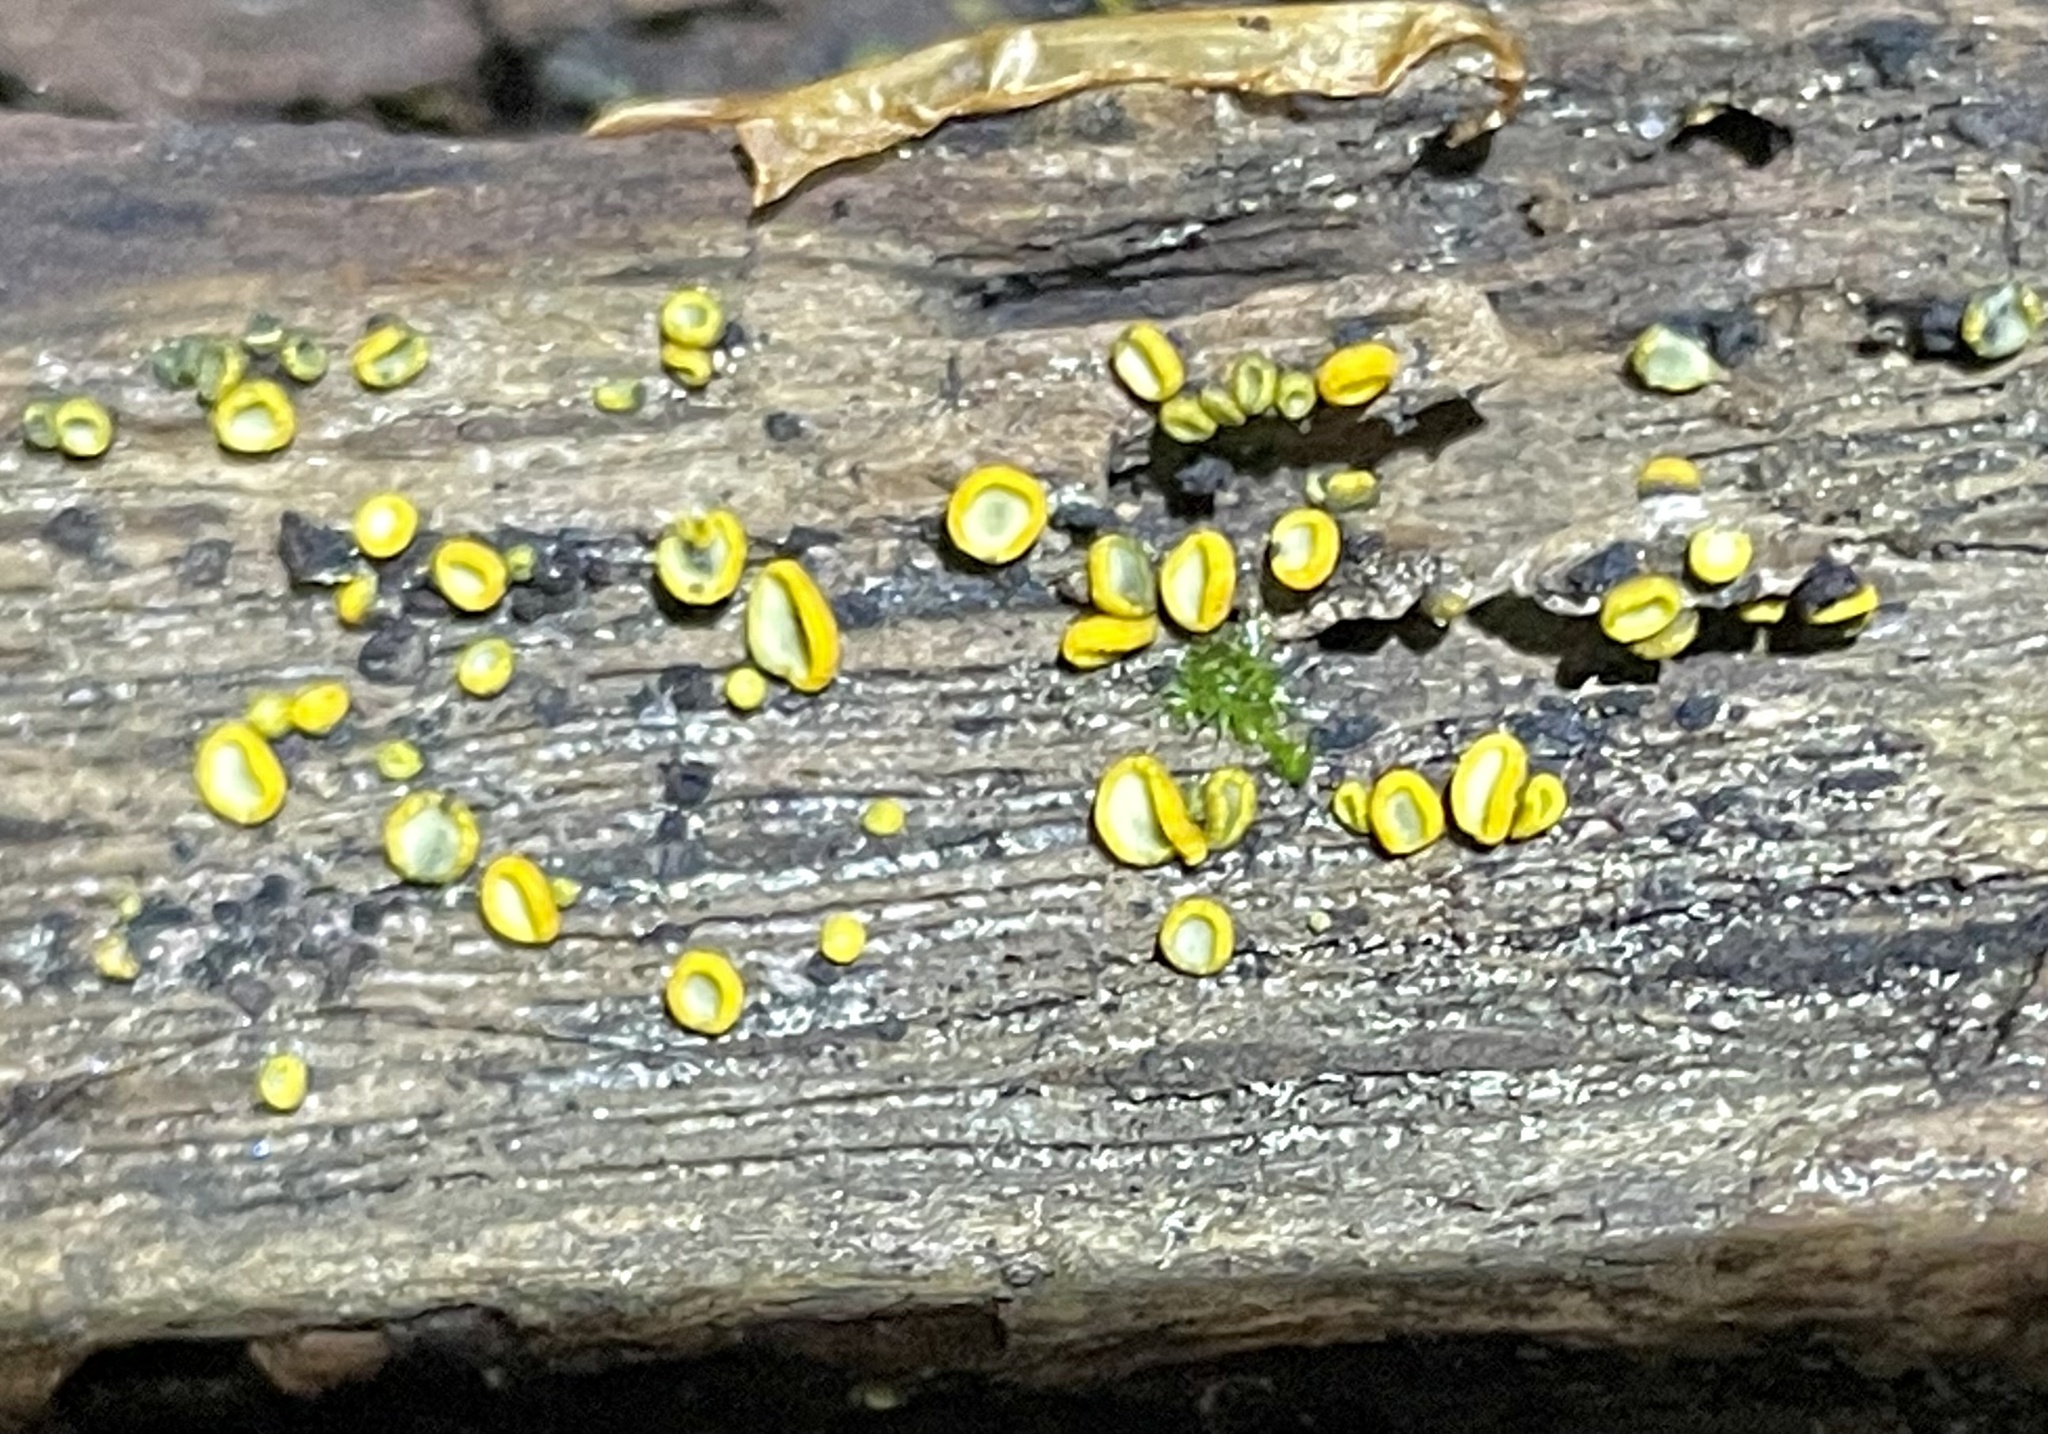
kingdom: Fungi
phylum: Ascomycota
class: Leotiomycetes
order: Helotiales
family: Chlorospleniaceae
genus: Chlorosplenium
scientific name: Chlorosplenium chlora
